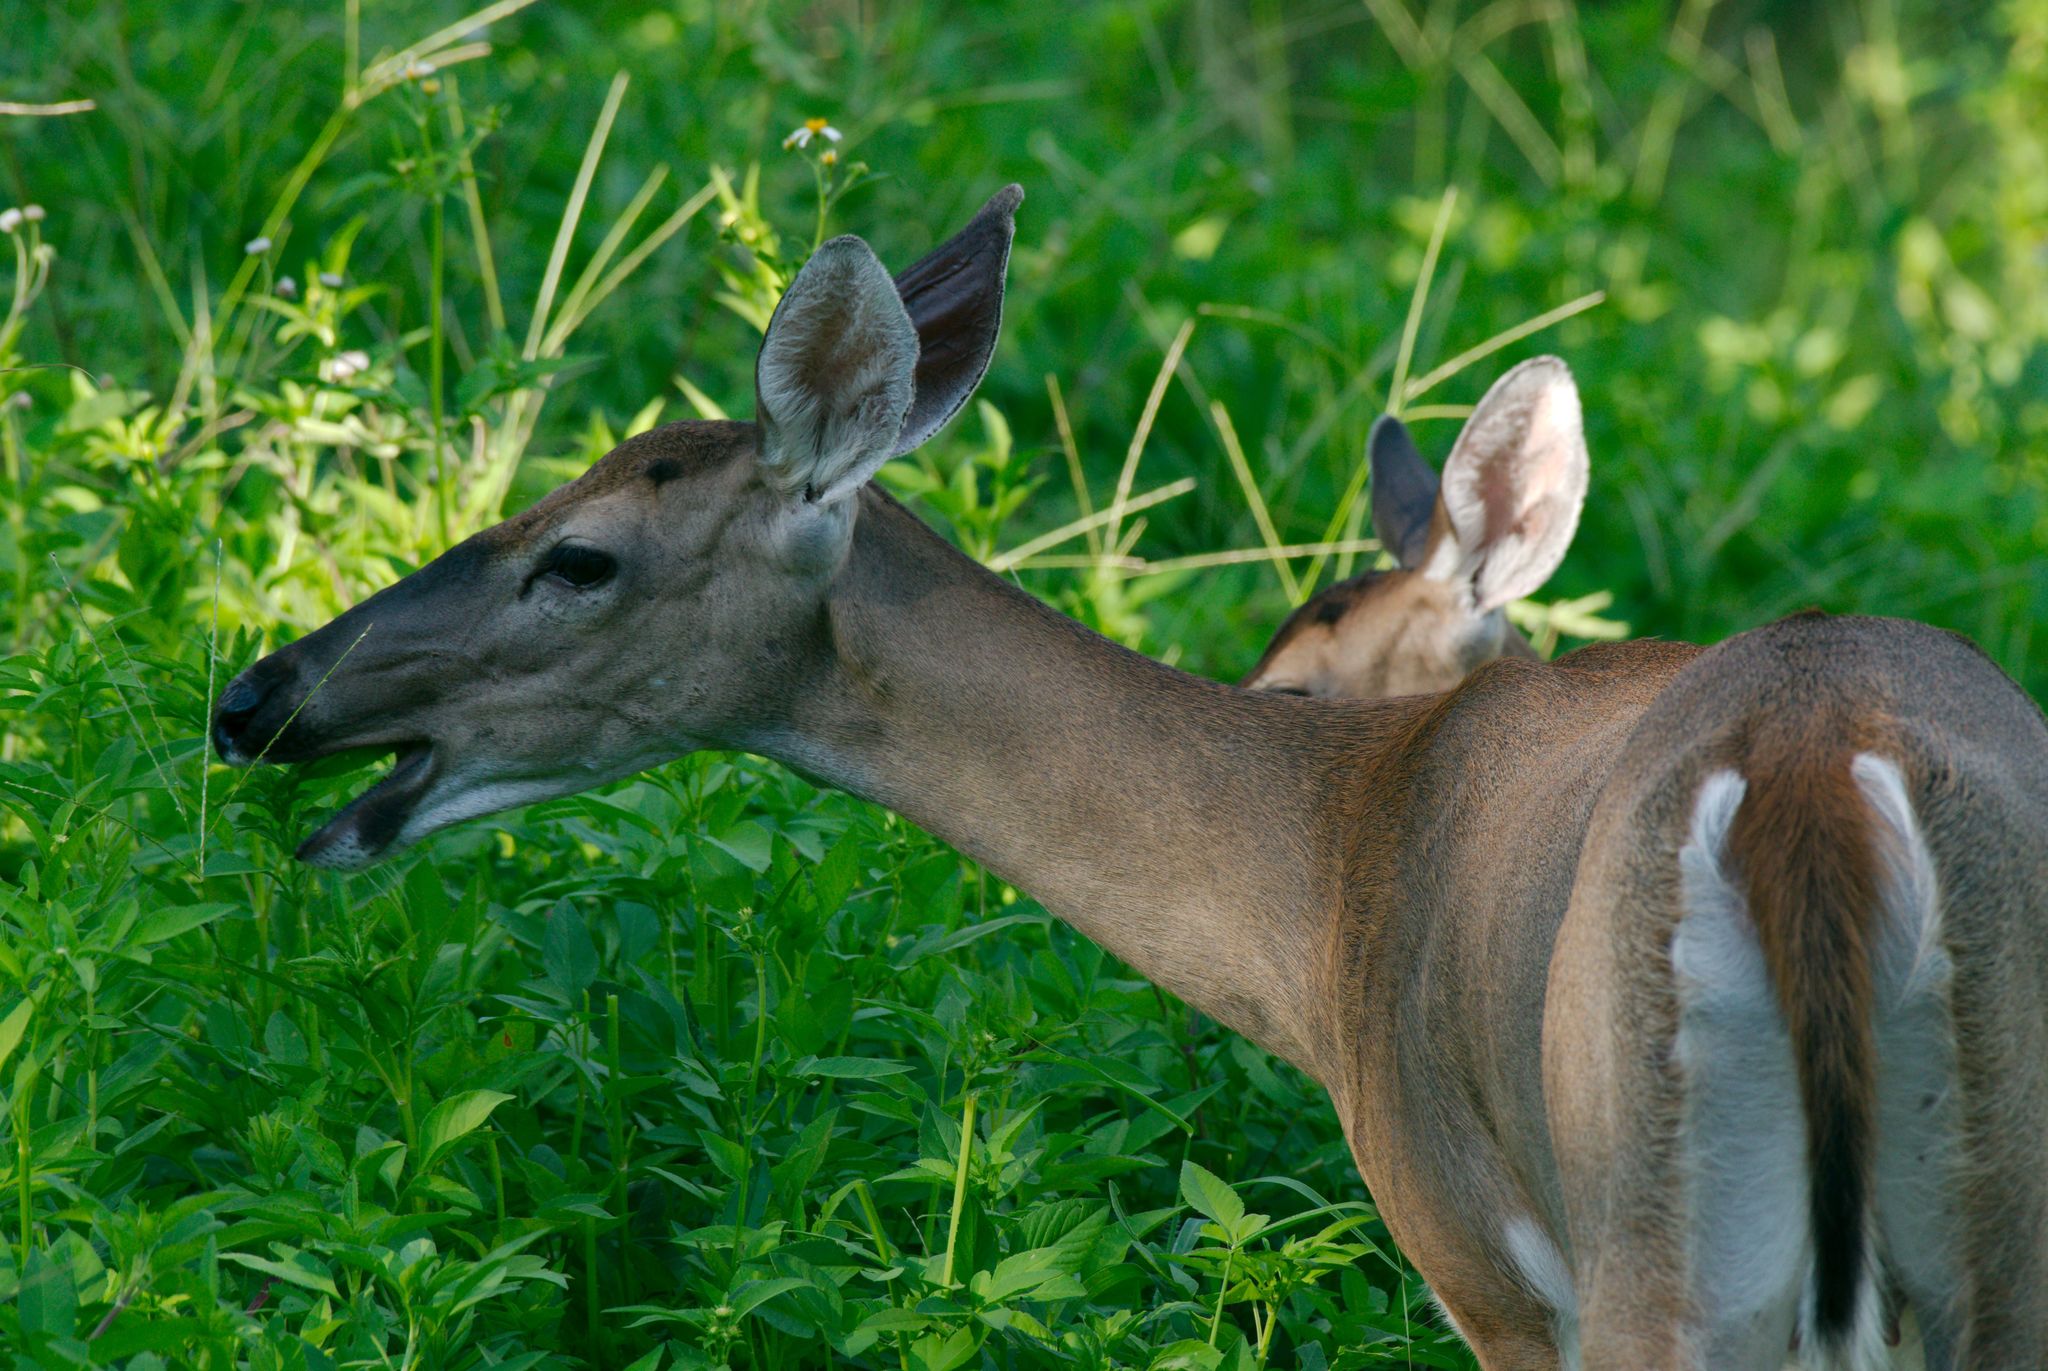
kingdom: Animalia
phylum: Chordata
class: Mammalia
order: Artiodactyla
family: Cervidae
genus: Odocoileus
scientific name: Odocoileus virginianus
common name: White-tailed deer
